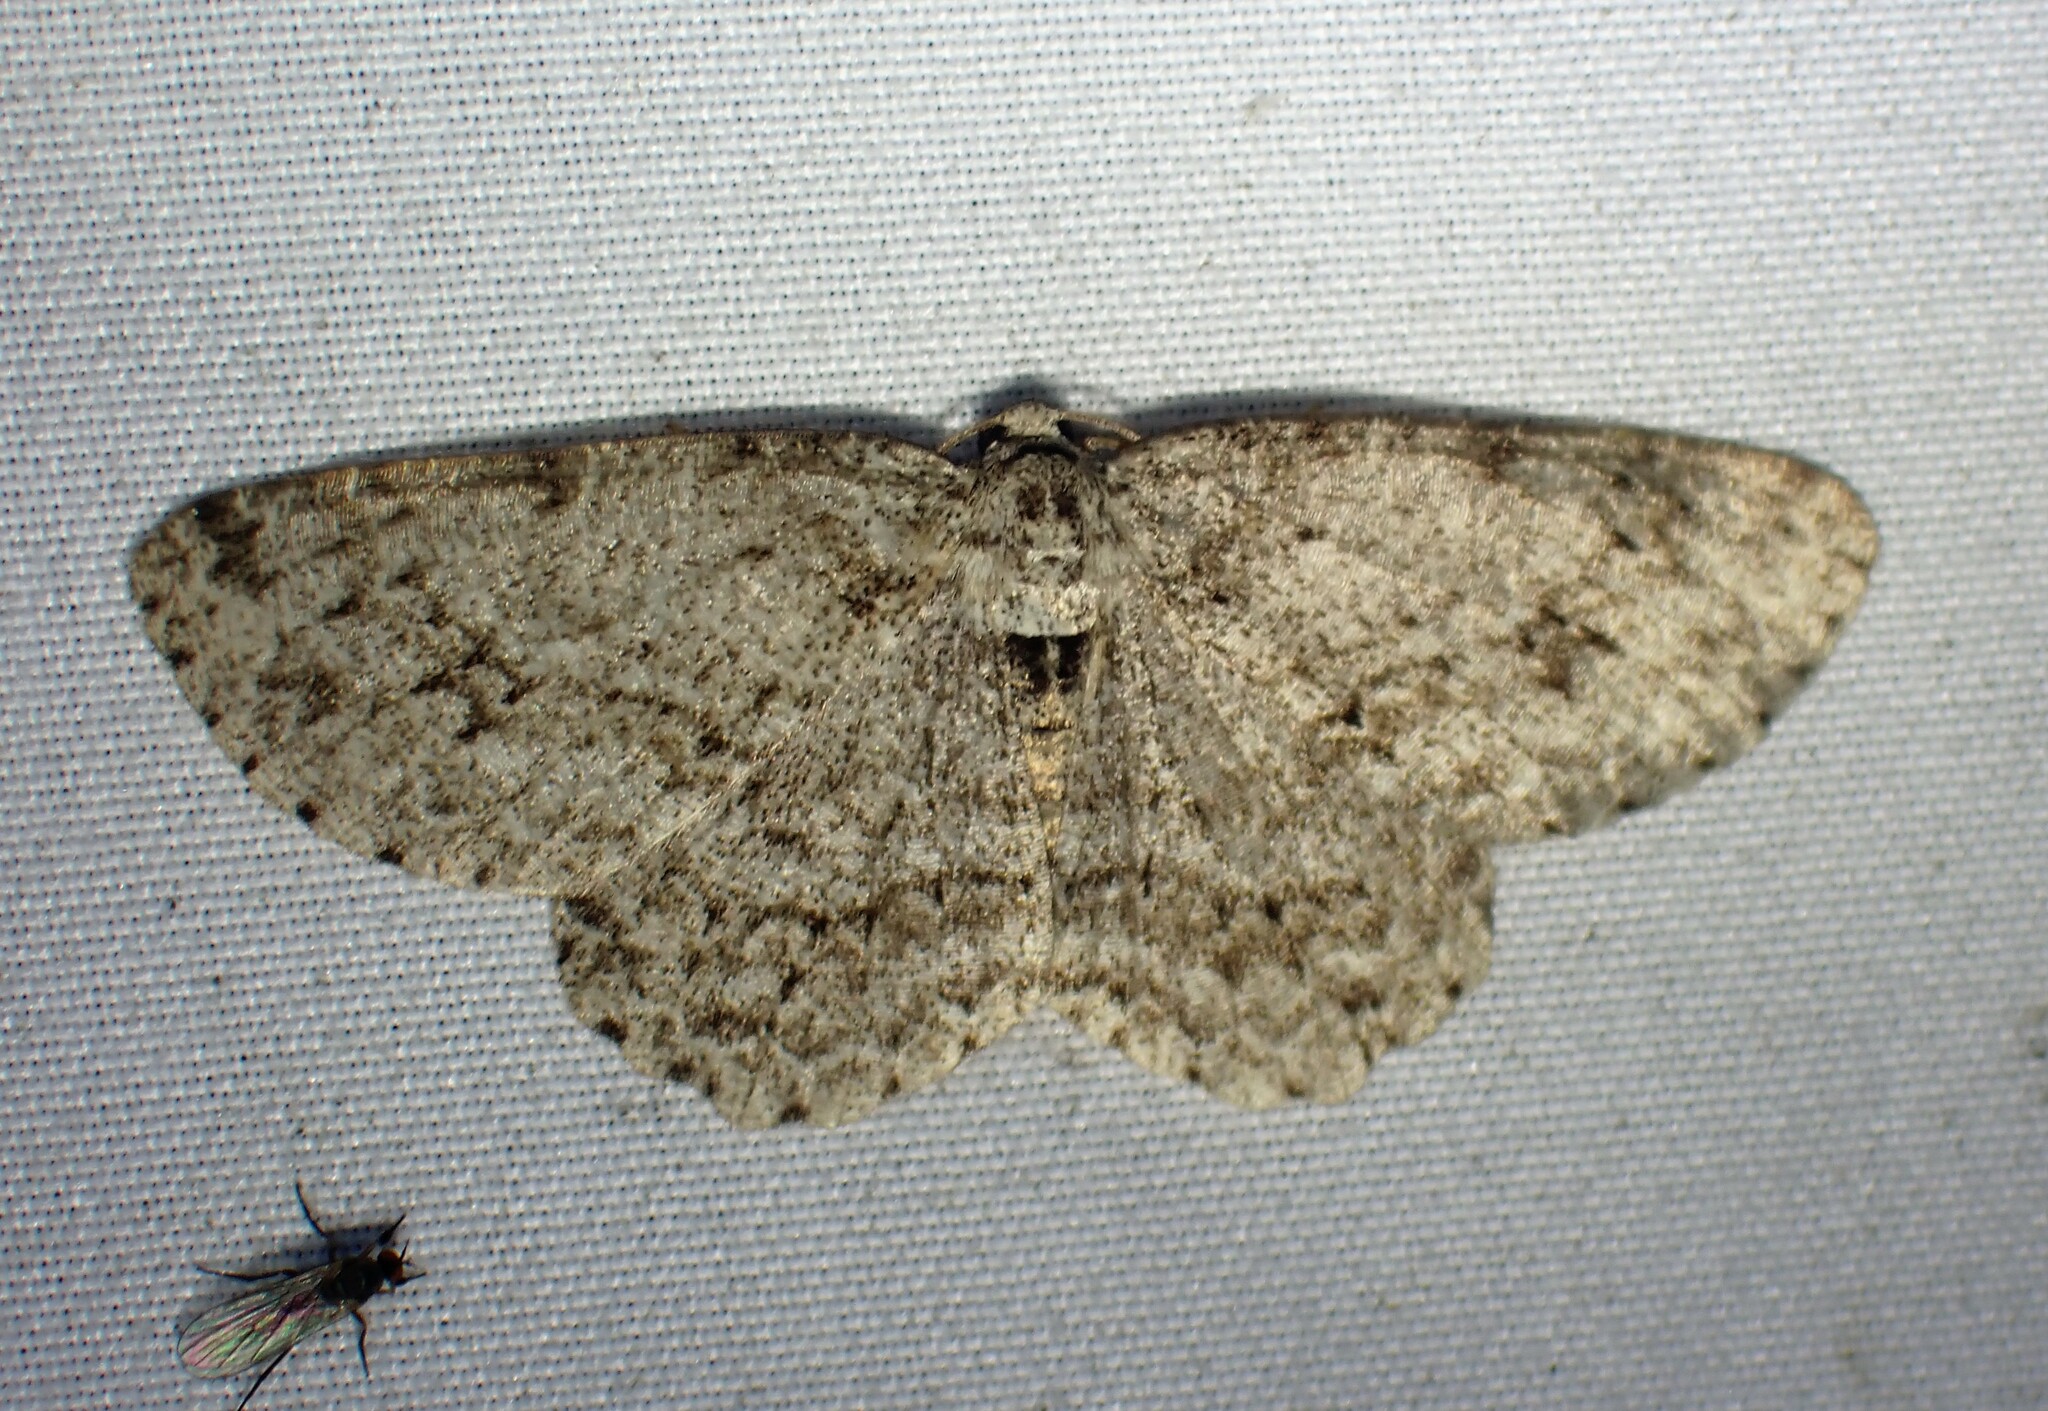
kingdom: Animalia
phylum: Arthropoda
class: Insecta
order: Lepidoptera
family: Geometridae
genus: Ectropis
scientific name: Ectropis crepuscularia
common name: Engrailed
